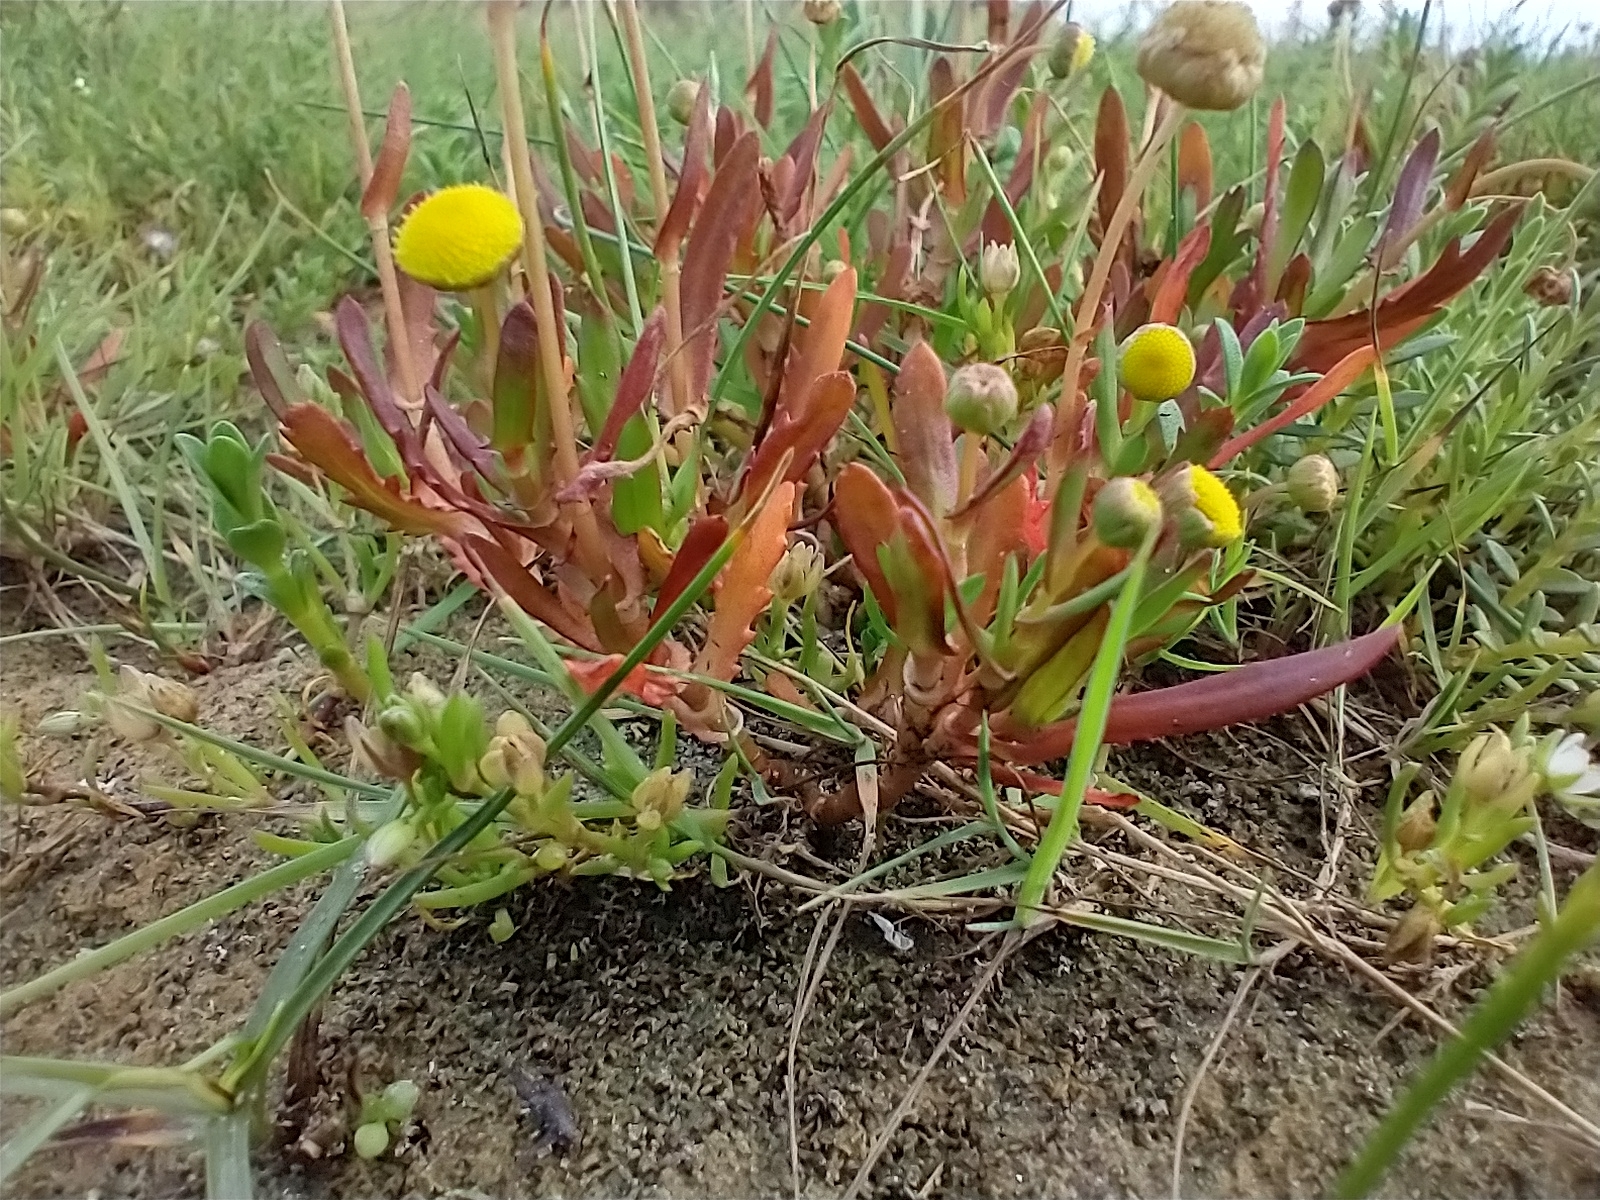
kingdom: Plantae
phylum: Tracheophyta
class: Magnoliopsida
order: Asterales
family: Asteraceae
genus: Cotula
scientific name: Cotula coronopifolia
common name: Buttonweed
